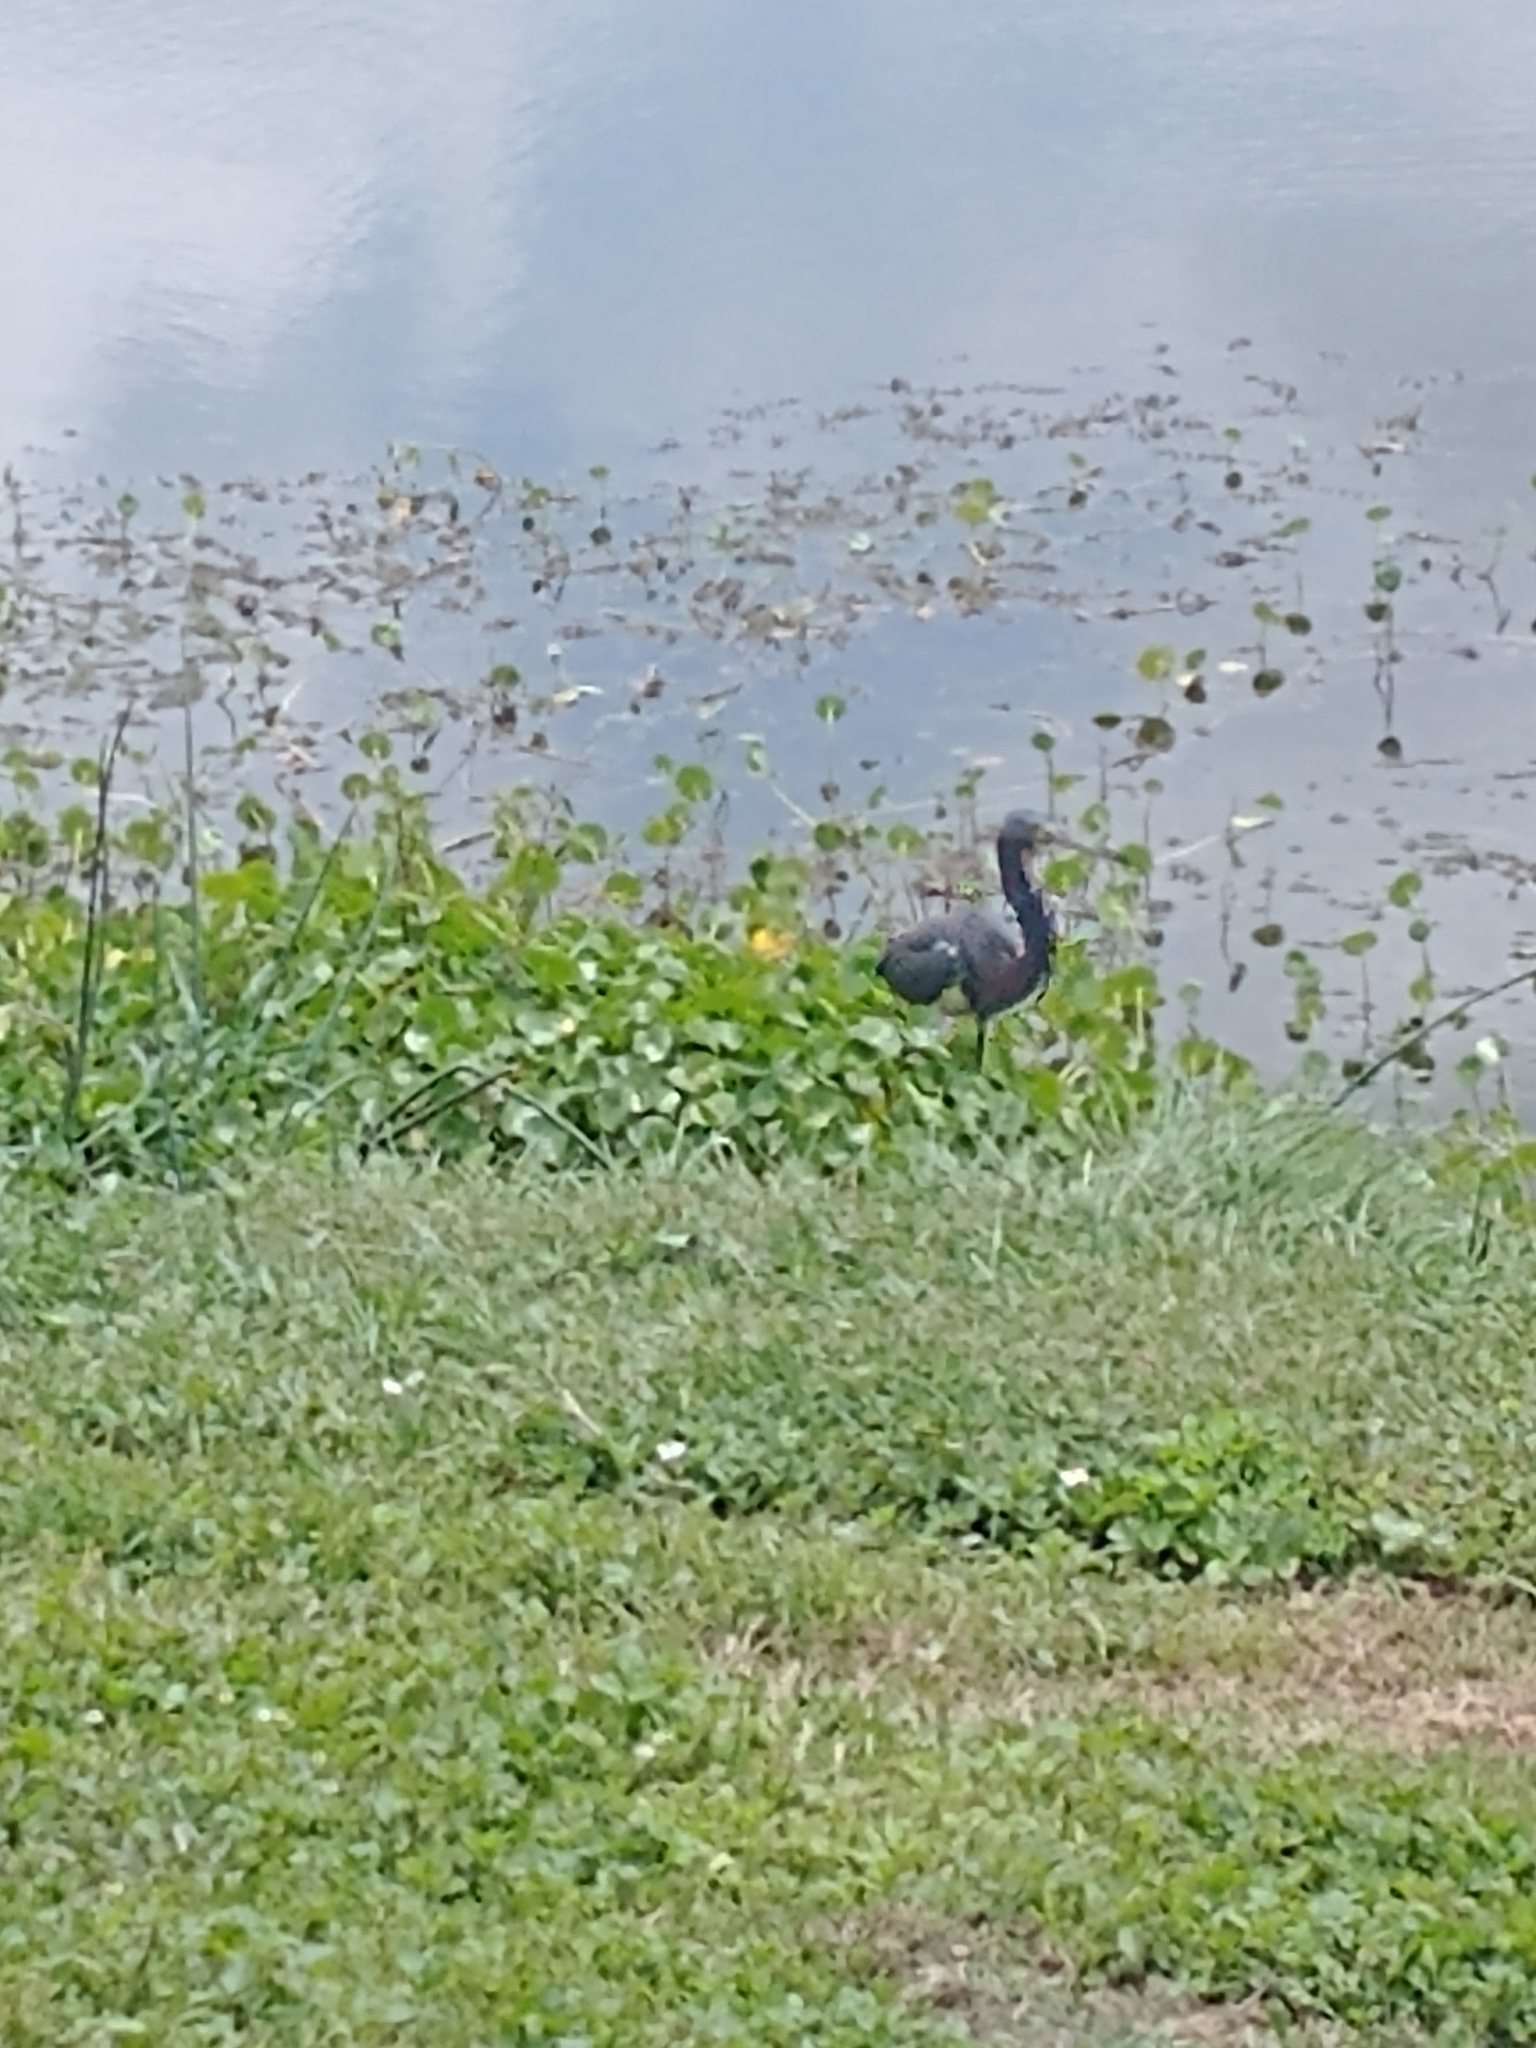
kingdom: Animalia
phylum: Chordata
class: Aves
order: Pelecaniformes
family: Ardeidae
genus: Egretta
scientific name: Egretta tricolor
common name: Tricolored heron
